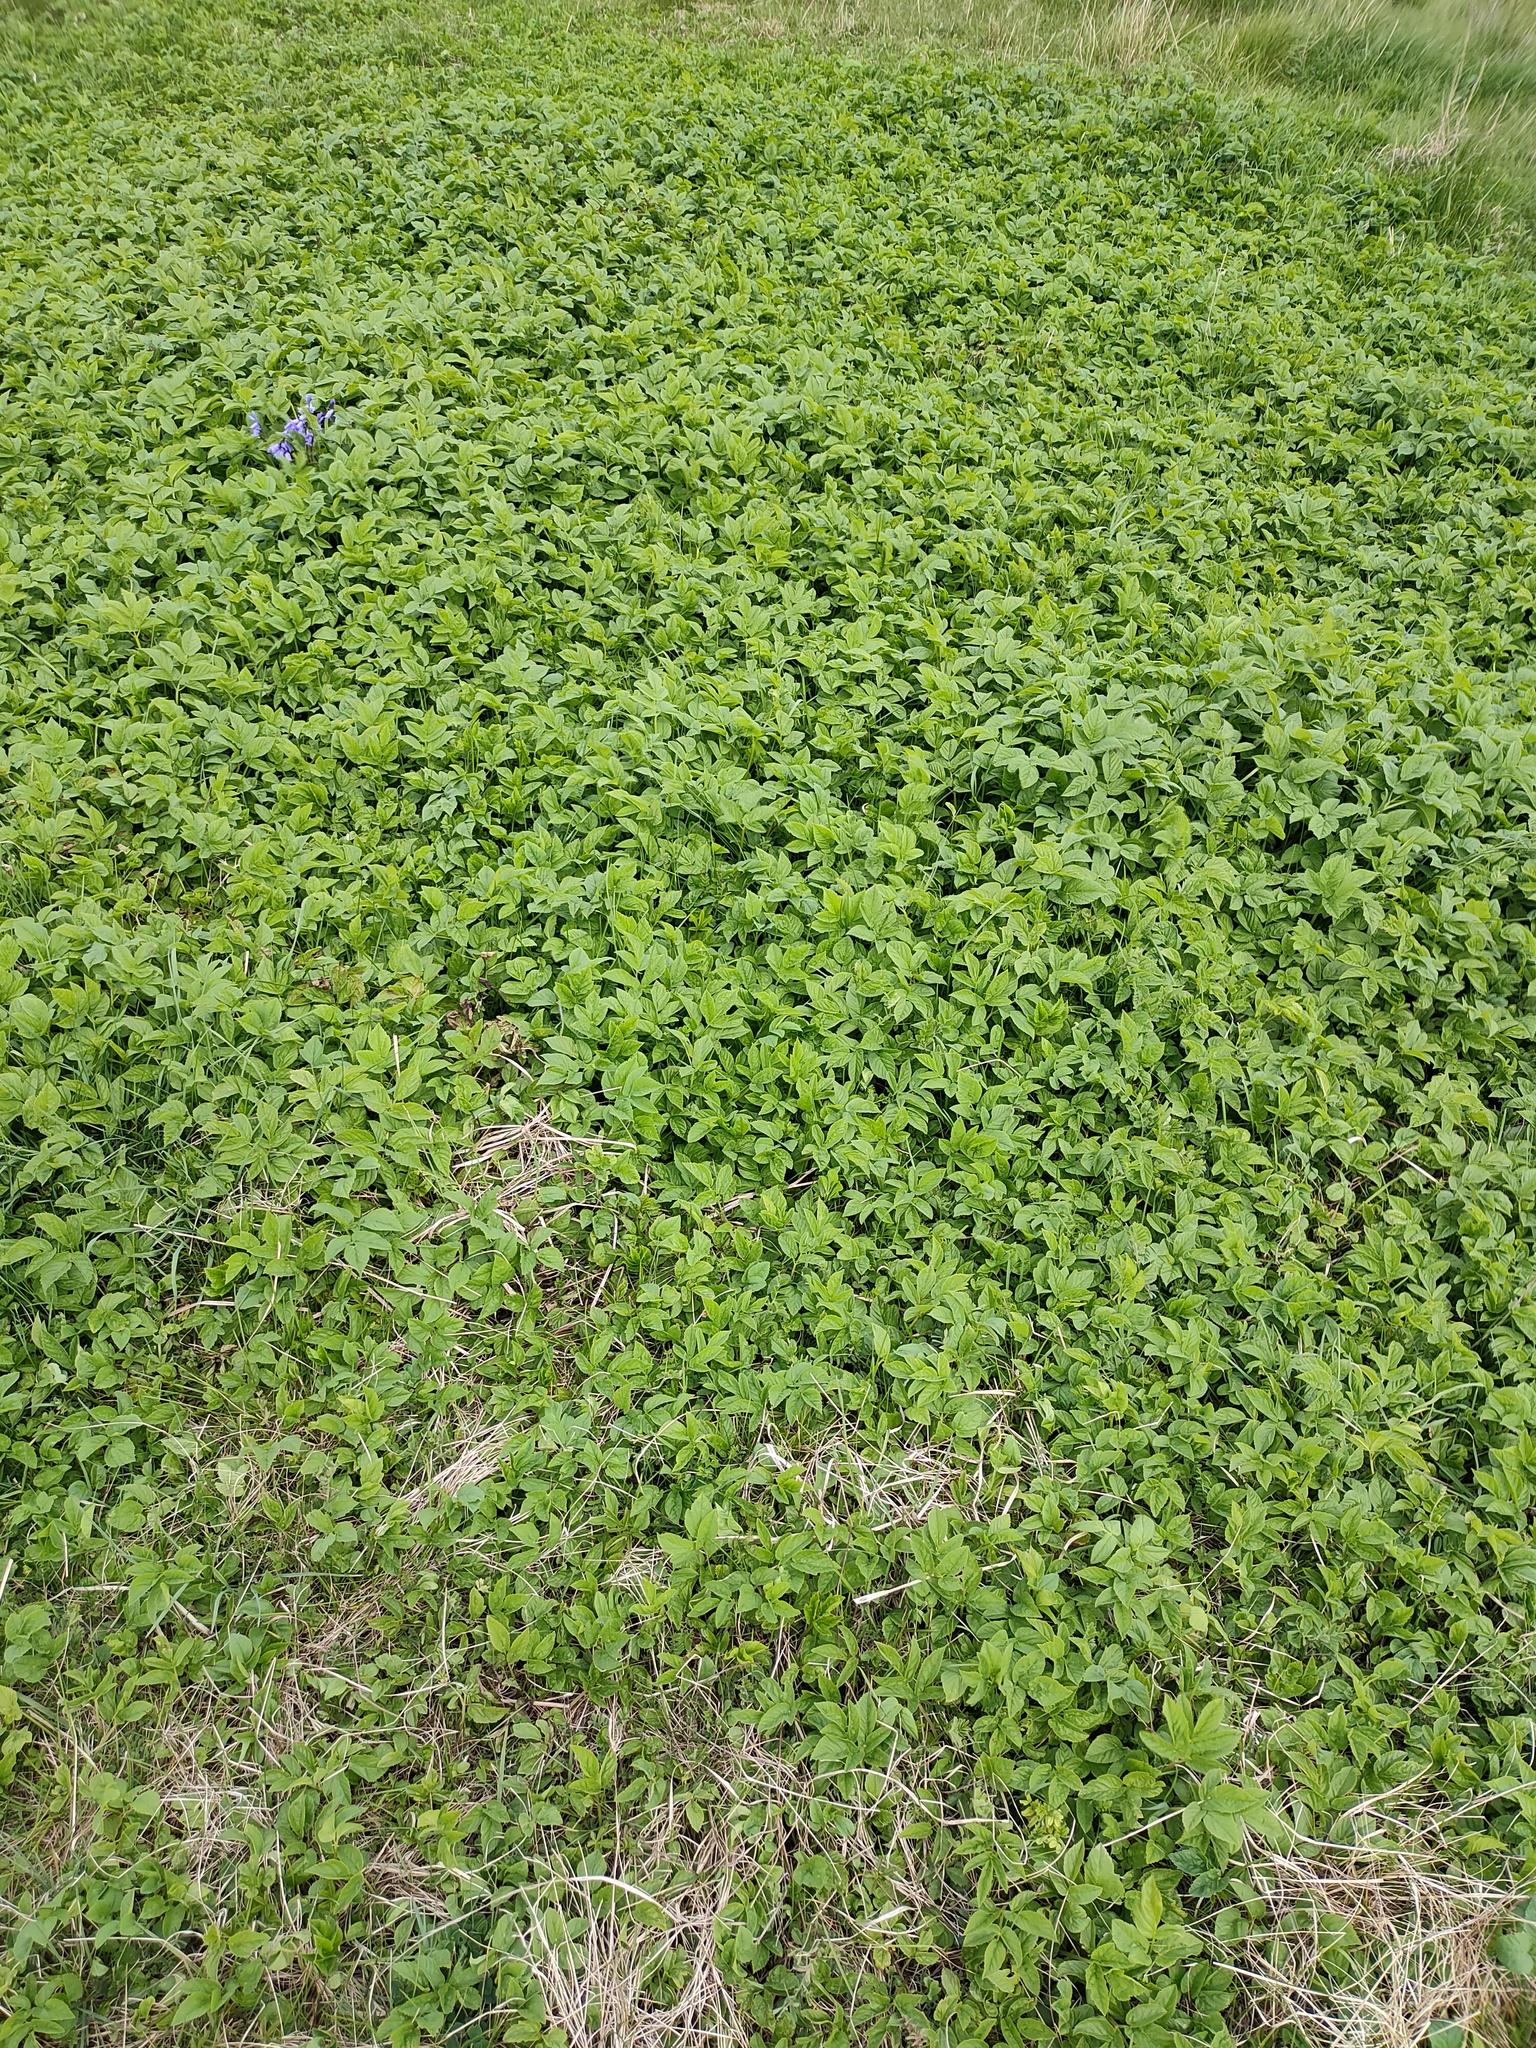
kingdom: Plantae
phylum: Tracheophyta
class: Magnoliopsida
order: Apiales
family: Apiaceae
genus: Aegopodium
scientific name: Aegopodium podagraria
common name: Ground-elder
